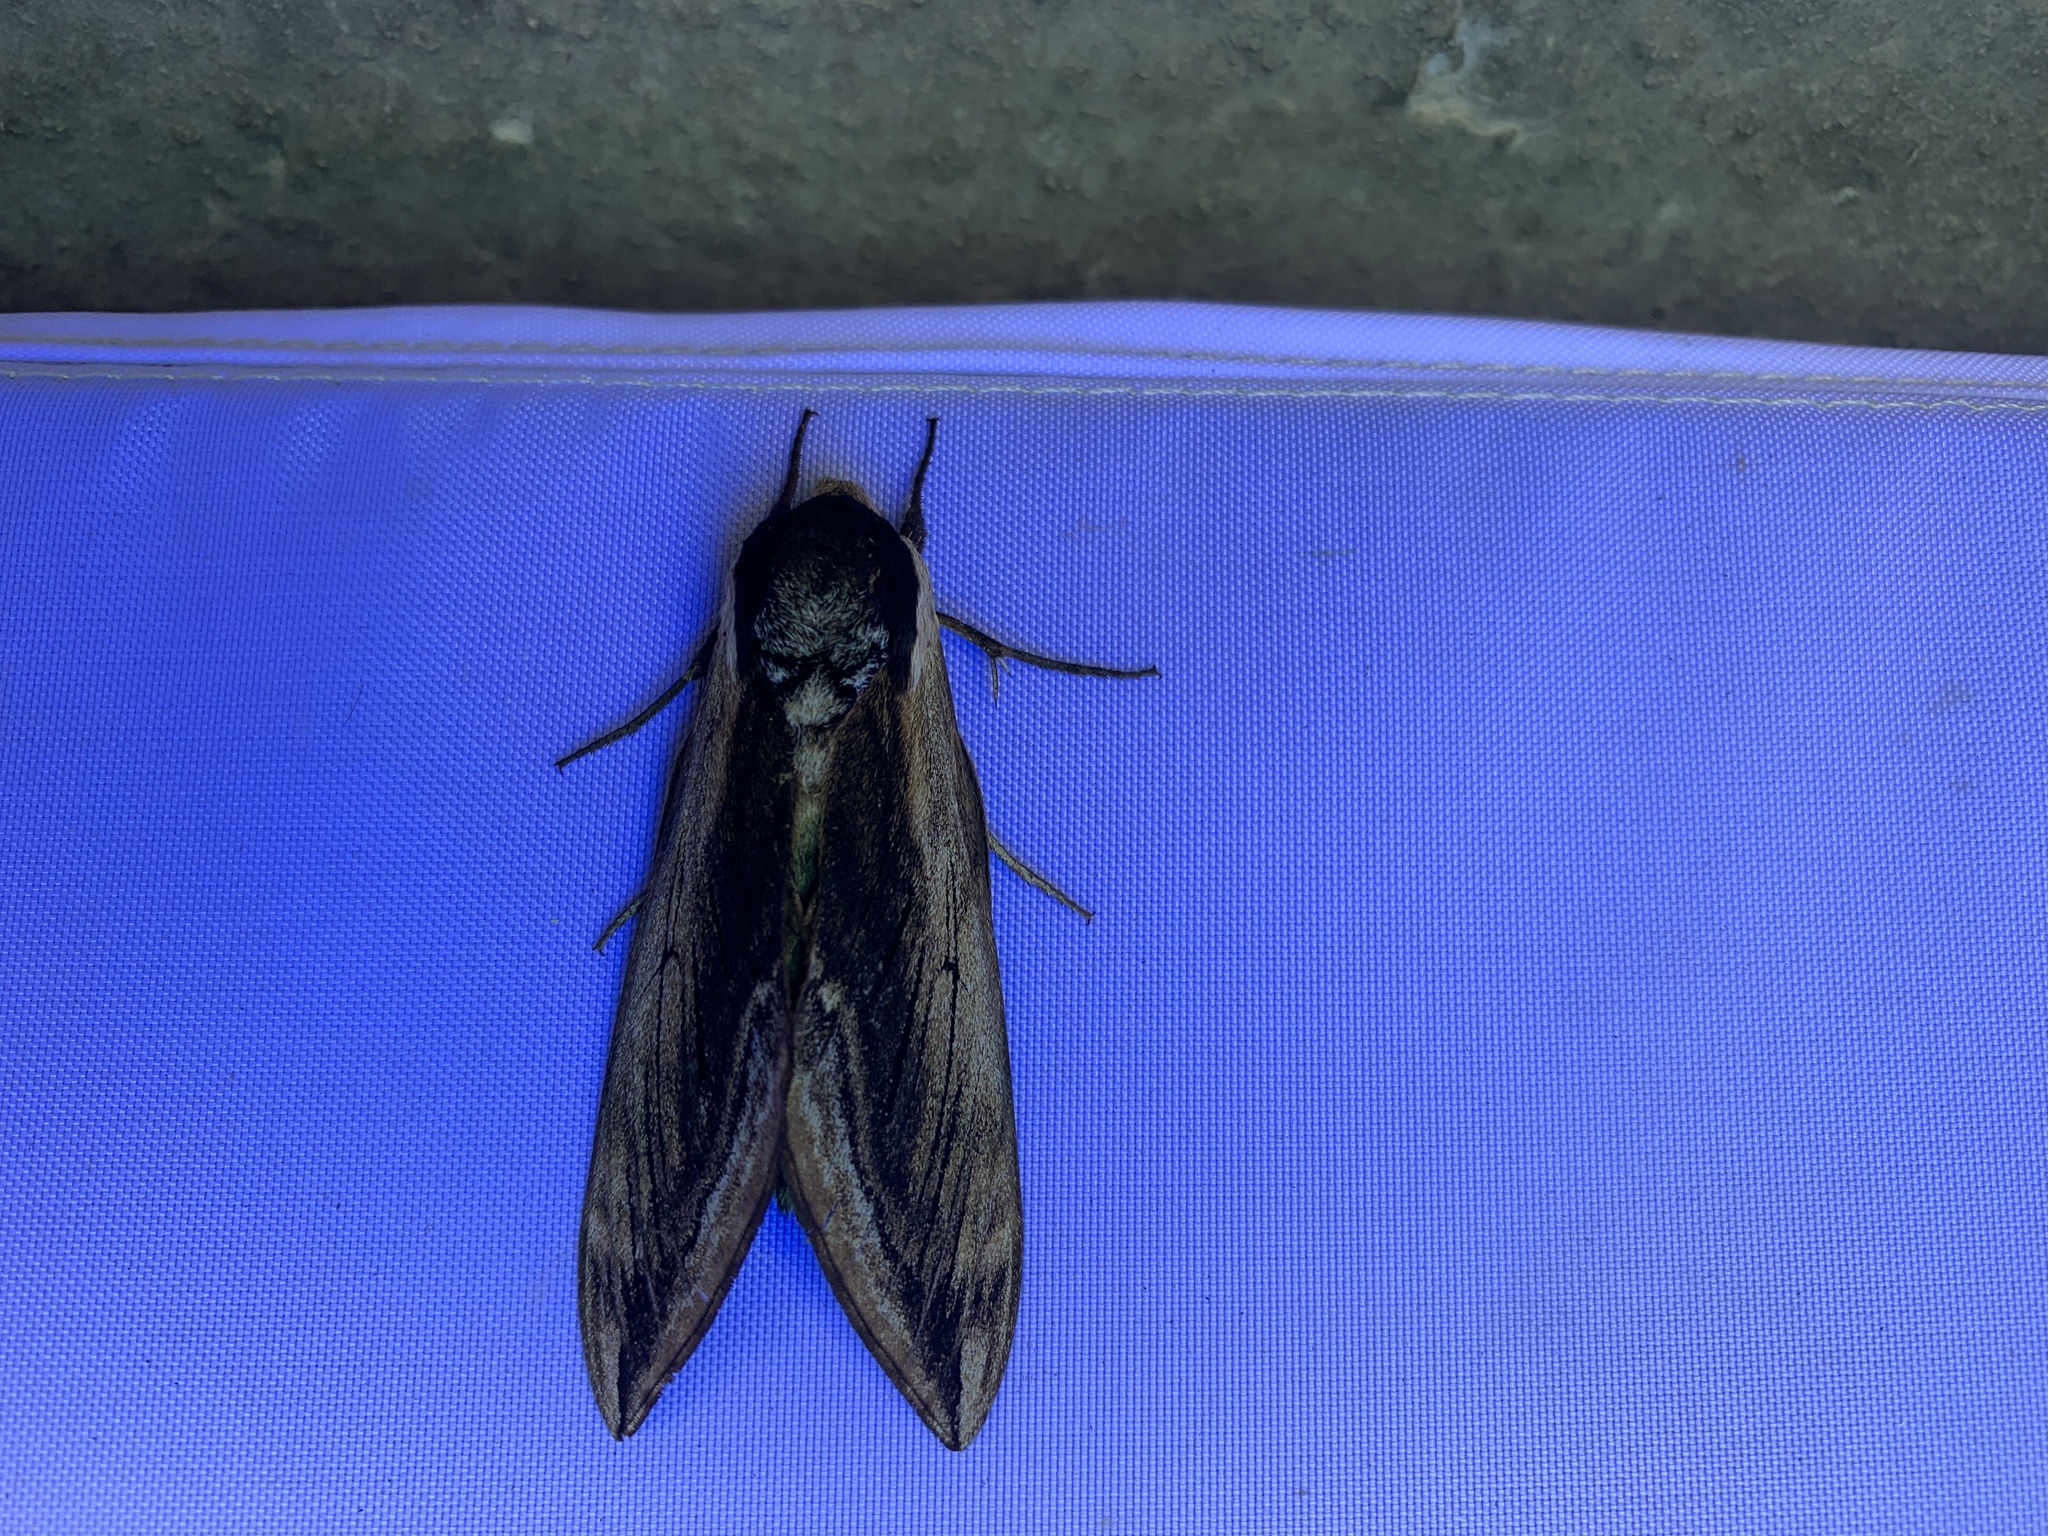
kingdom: Animalia
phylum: Arthropoda
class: Insecta
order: Lepidoptera
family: Sphingidae
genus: Sphinx
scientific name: Sphinx ligustri
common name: Privet hawk-moth
